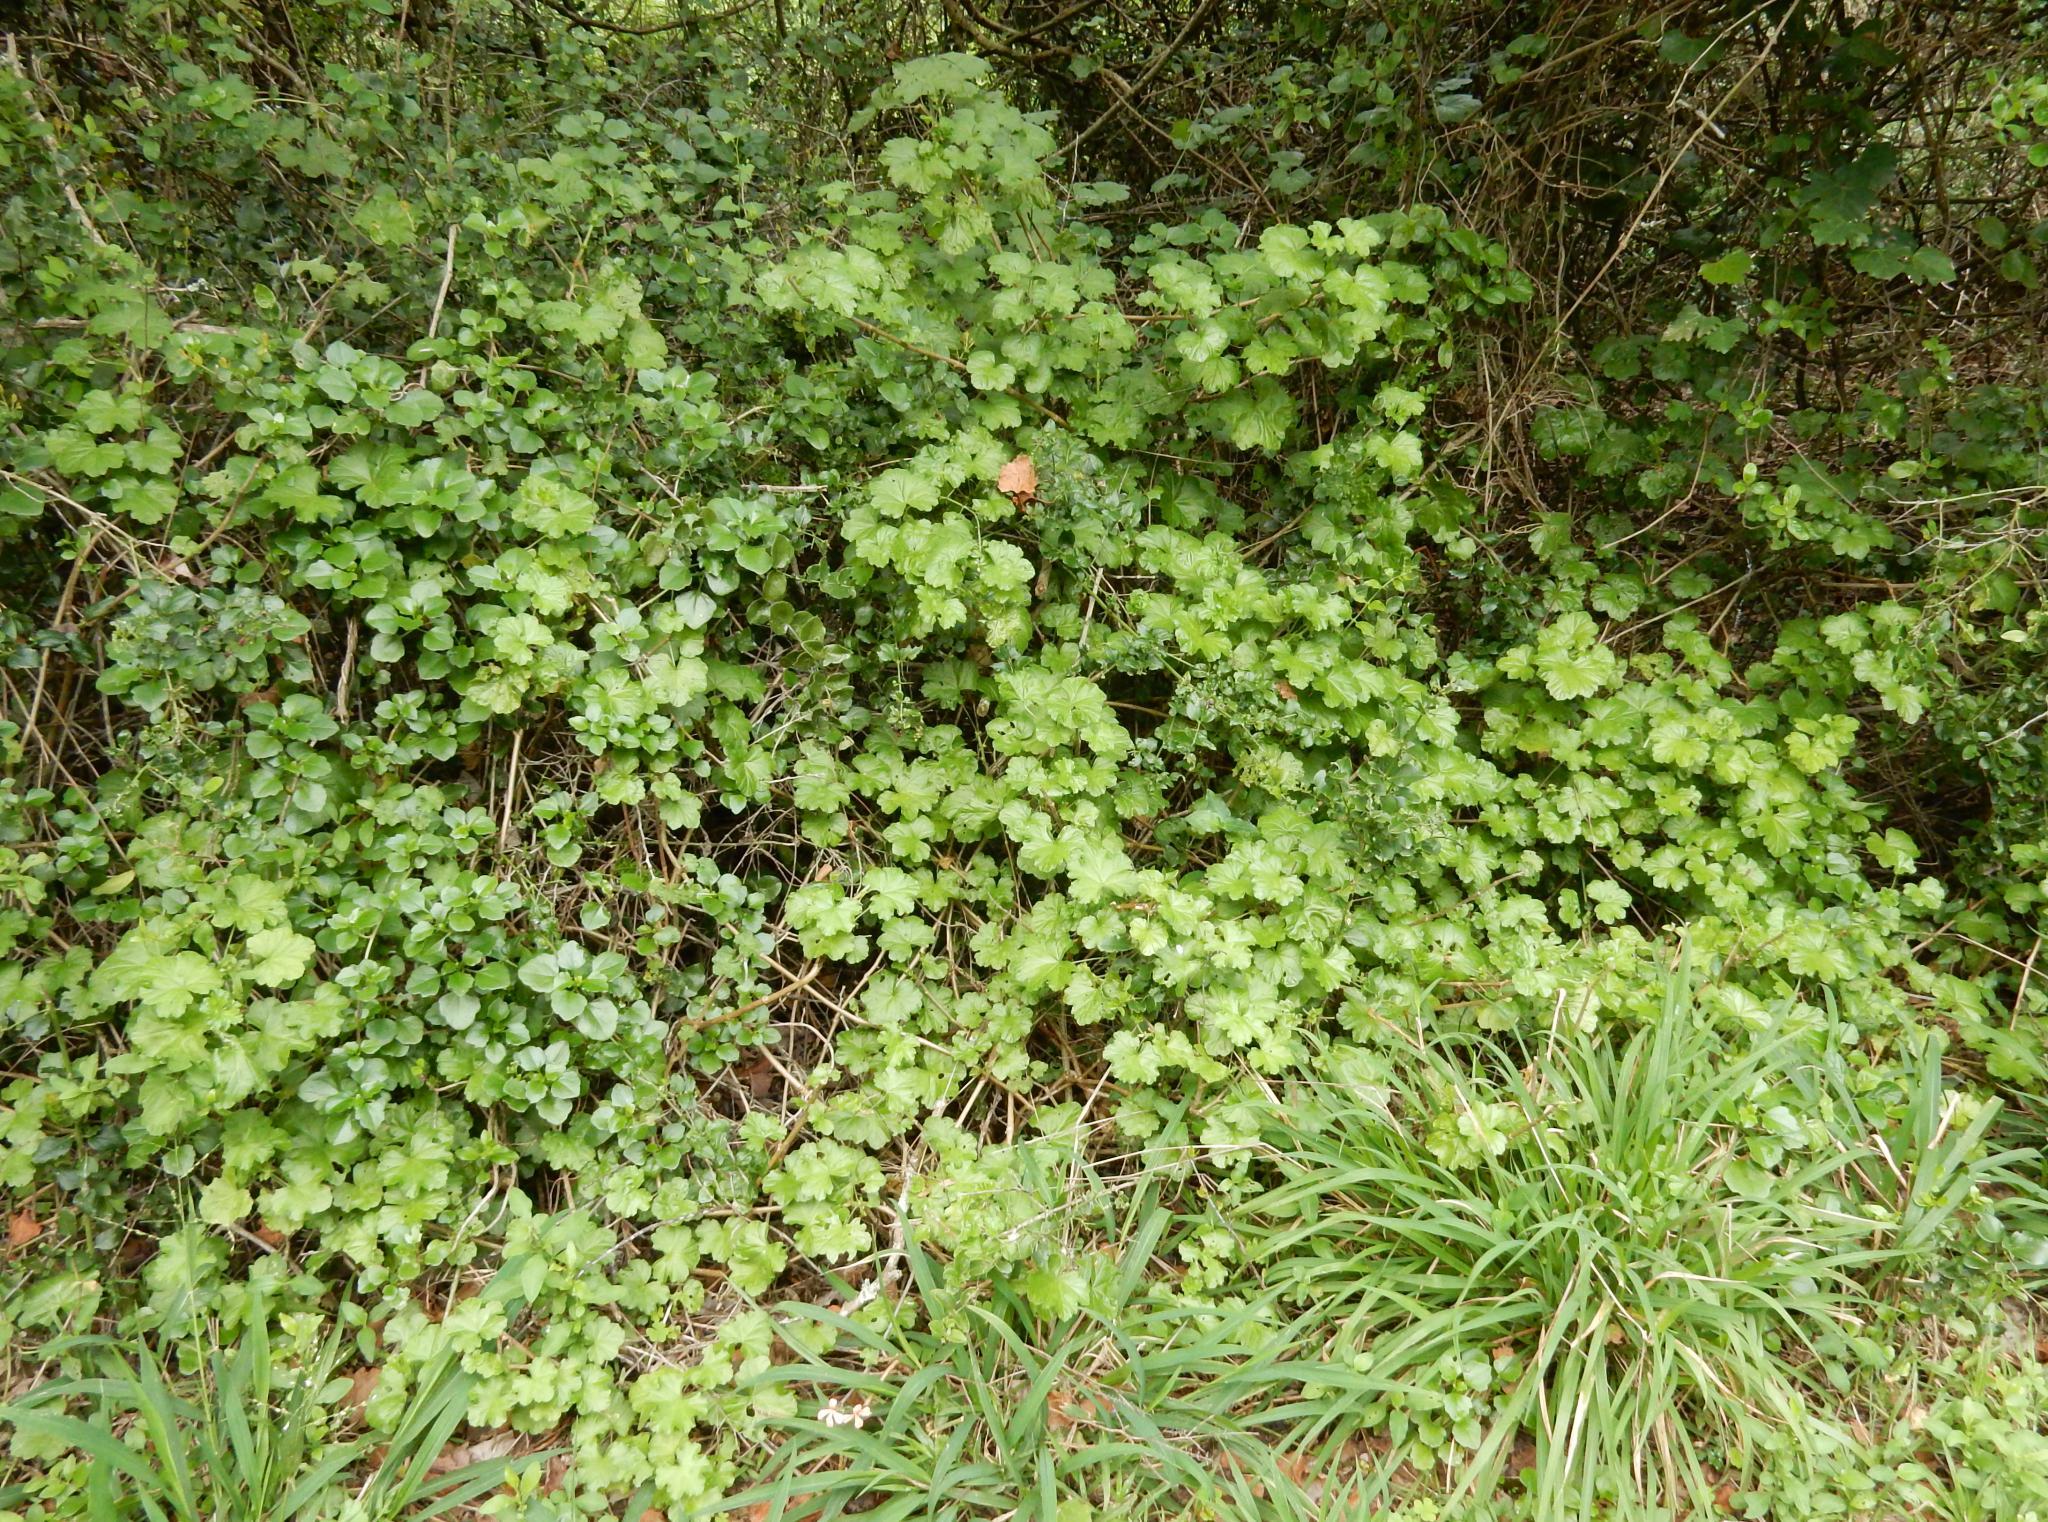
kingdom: Plantae
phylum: Tracheophyta
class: Magnoliopsida
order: Geraniales
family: Geraniaceae
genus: Pelargonium
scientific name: Pelargonium frutetorum
